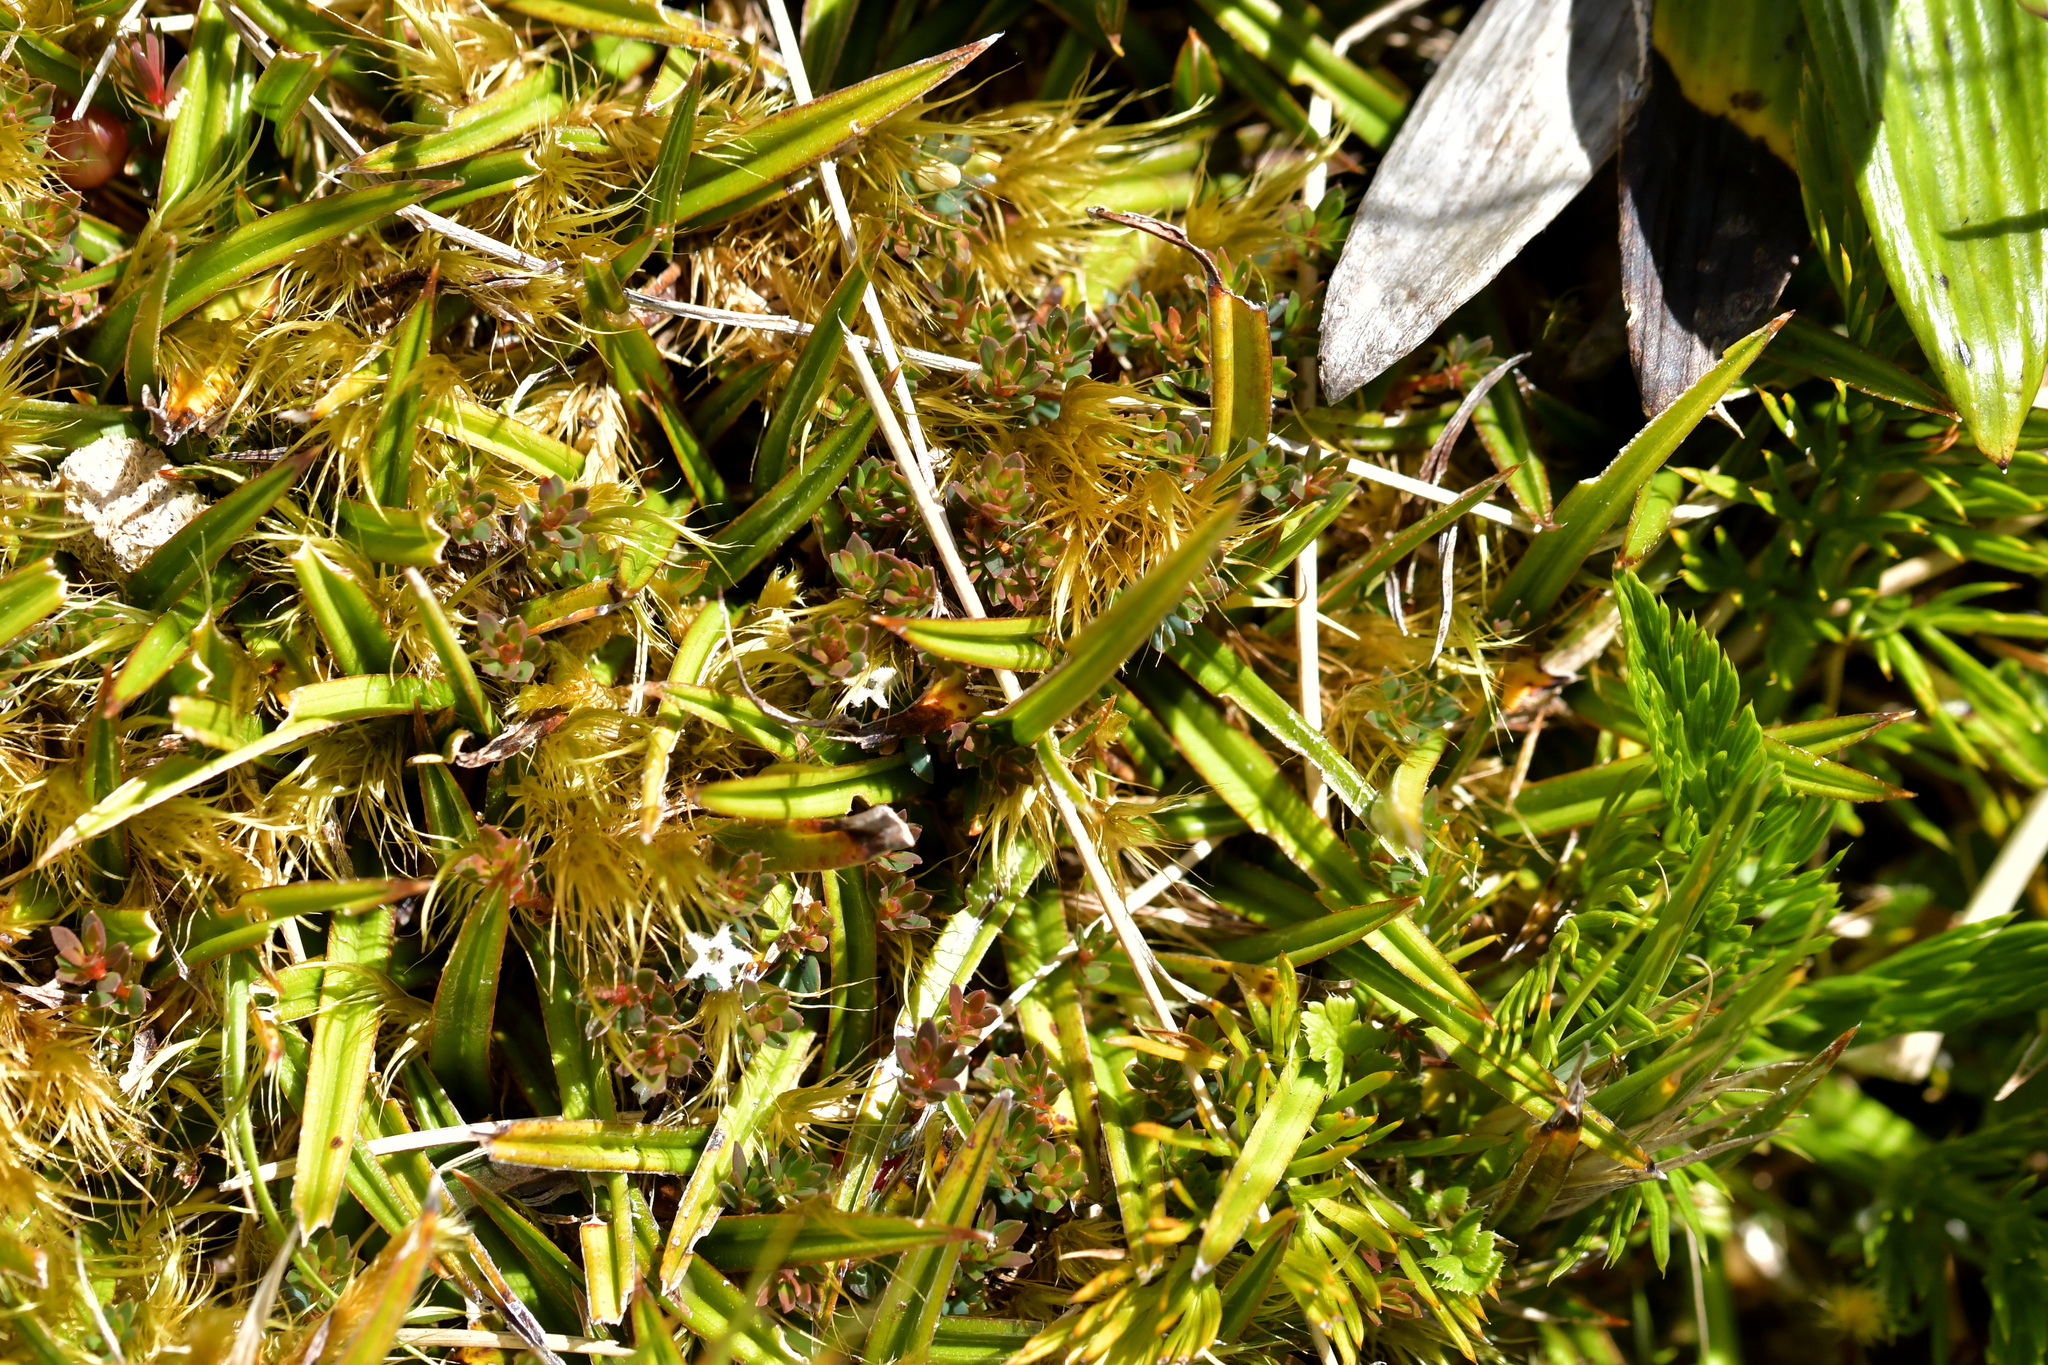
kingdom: Plantae
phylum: Tracheophyta
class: Liliopsida
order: Asparagales
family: Asteliaceae
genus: Astelia
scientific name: Astelia linearis
